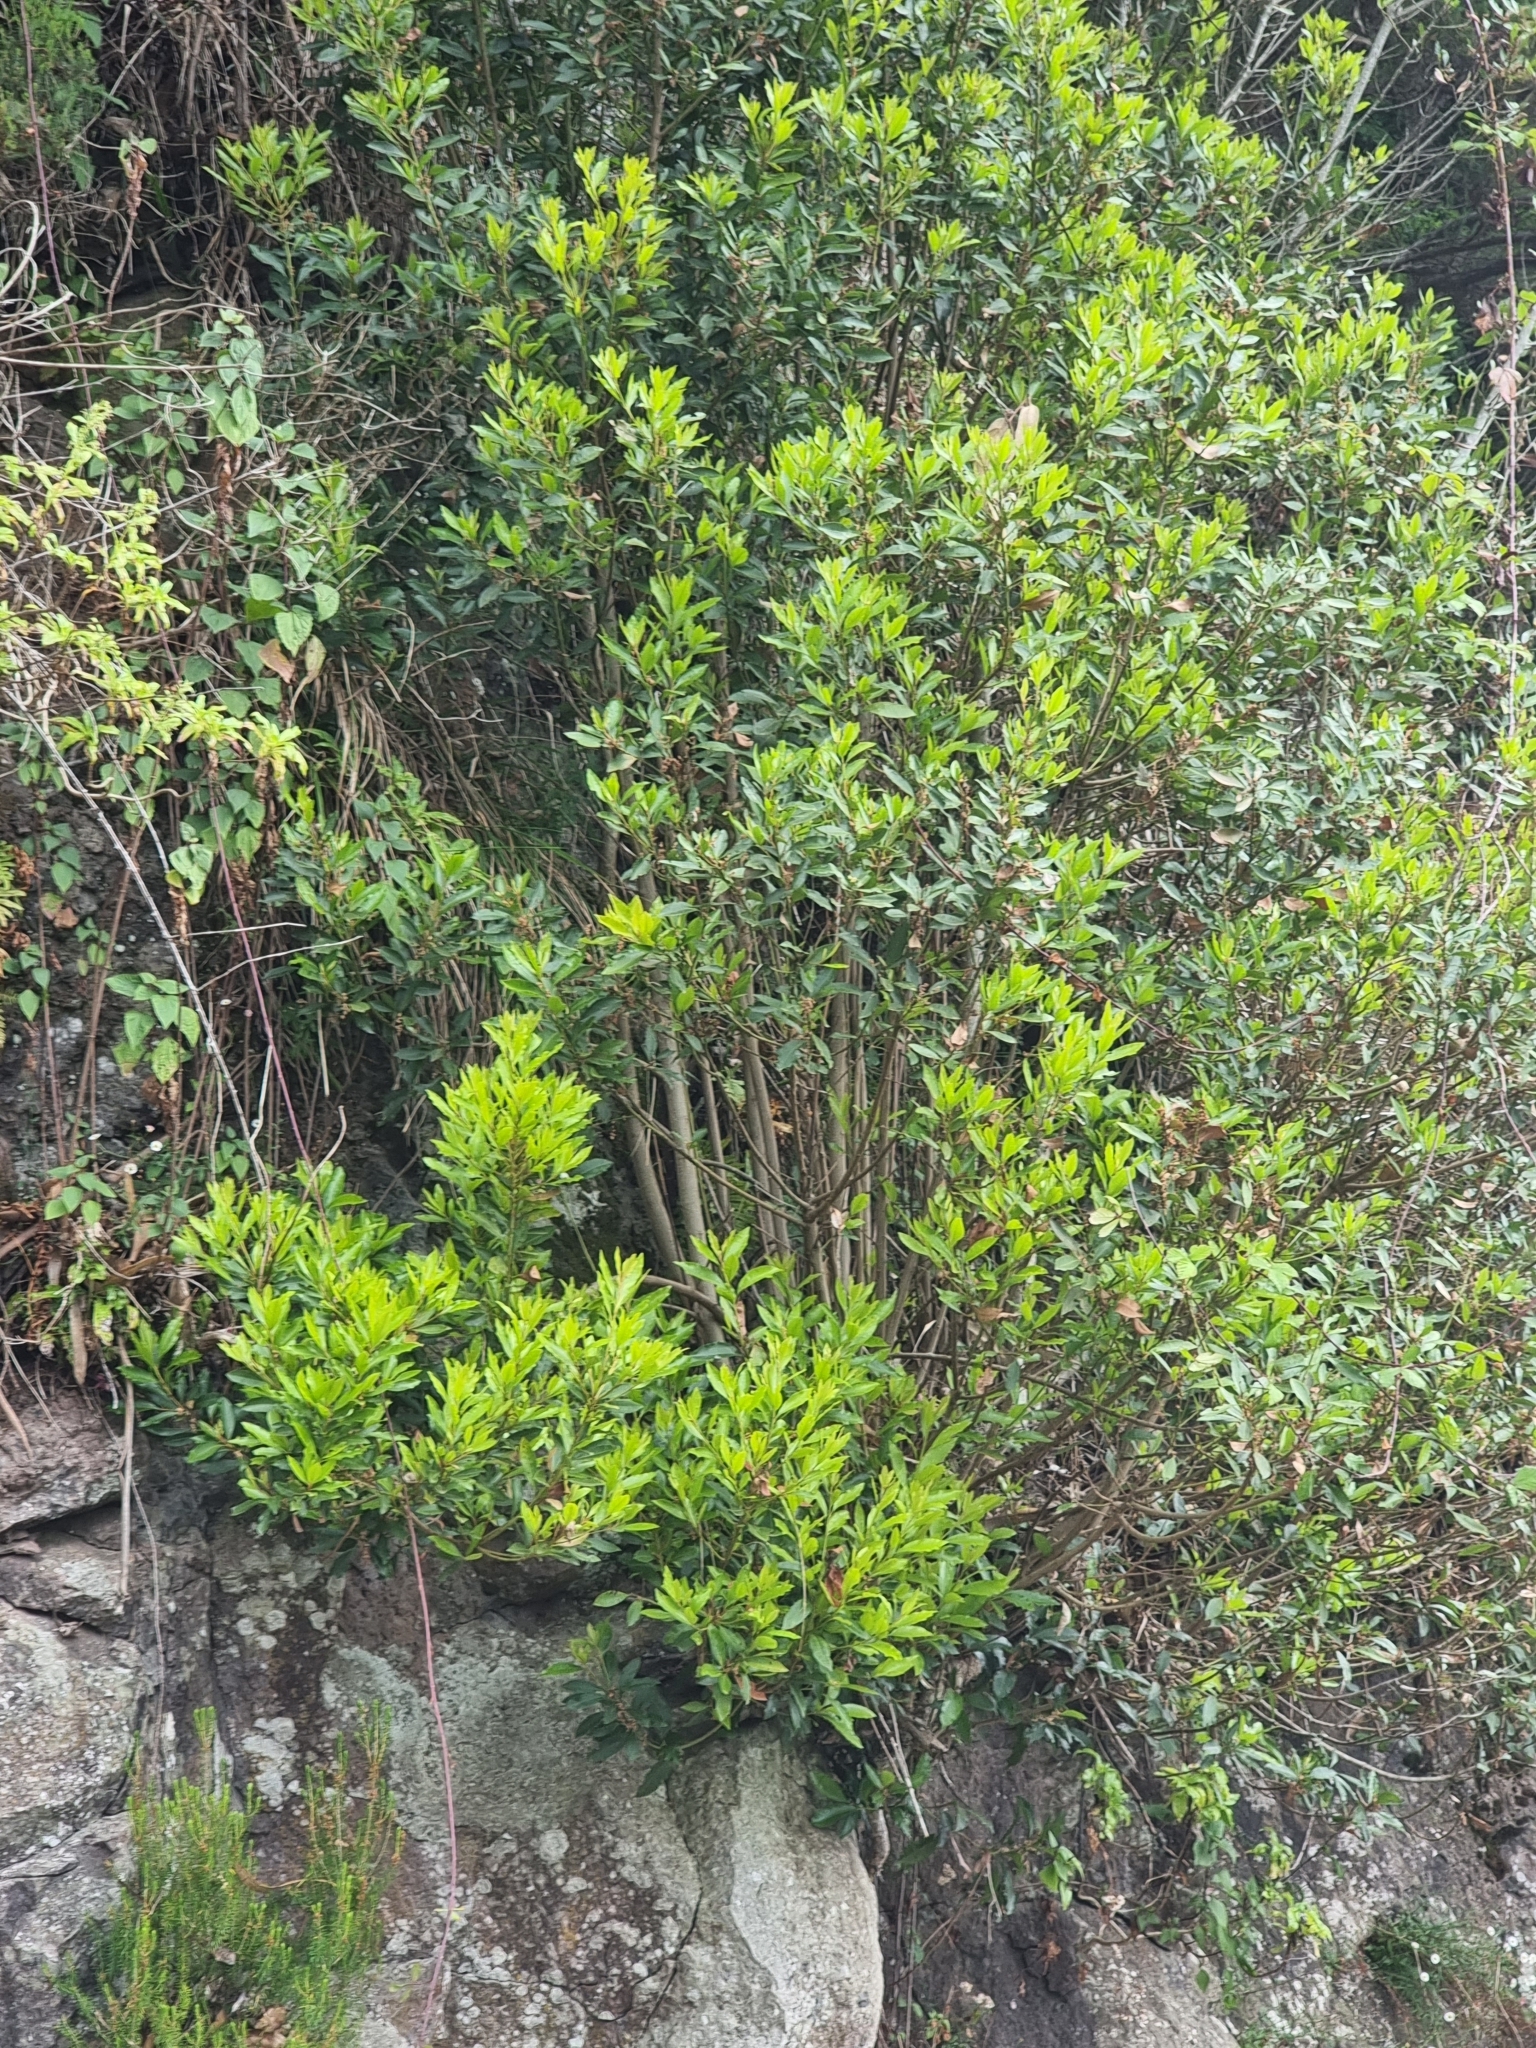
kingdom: Plantae
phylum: Tracheophyta
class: Magnoliopsida
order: Fagales
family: Myricaceae
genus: Morella
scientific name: Morella faya
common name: Firetree
